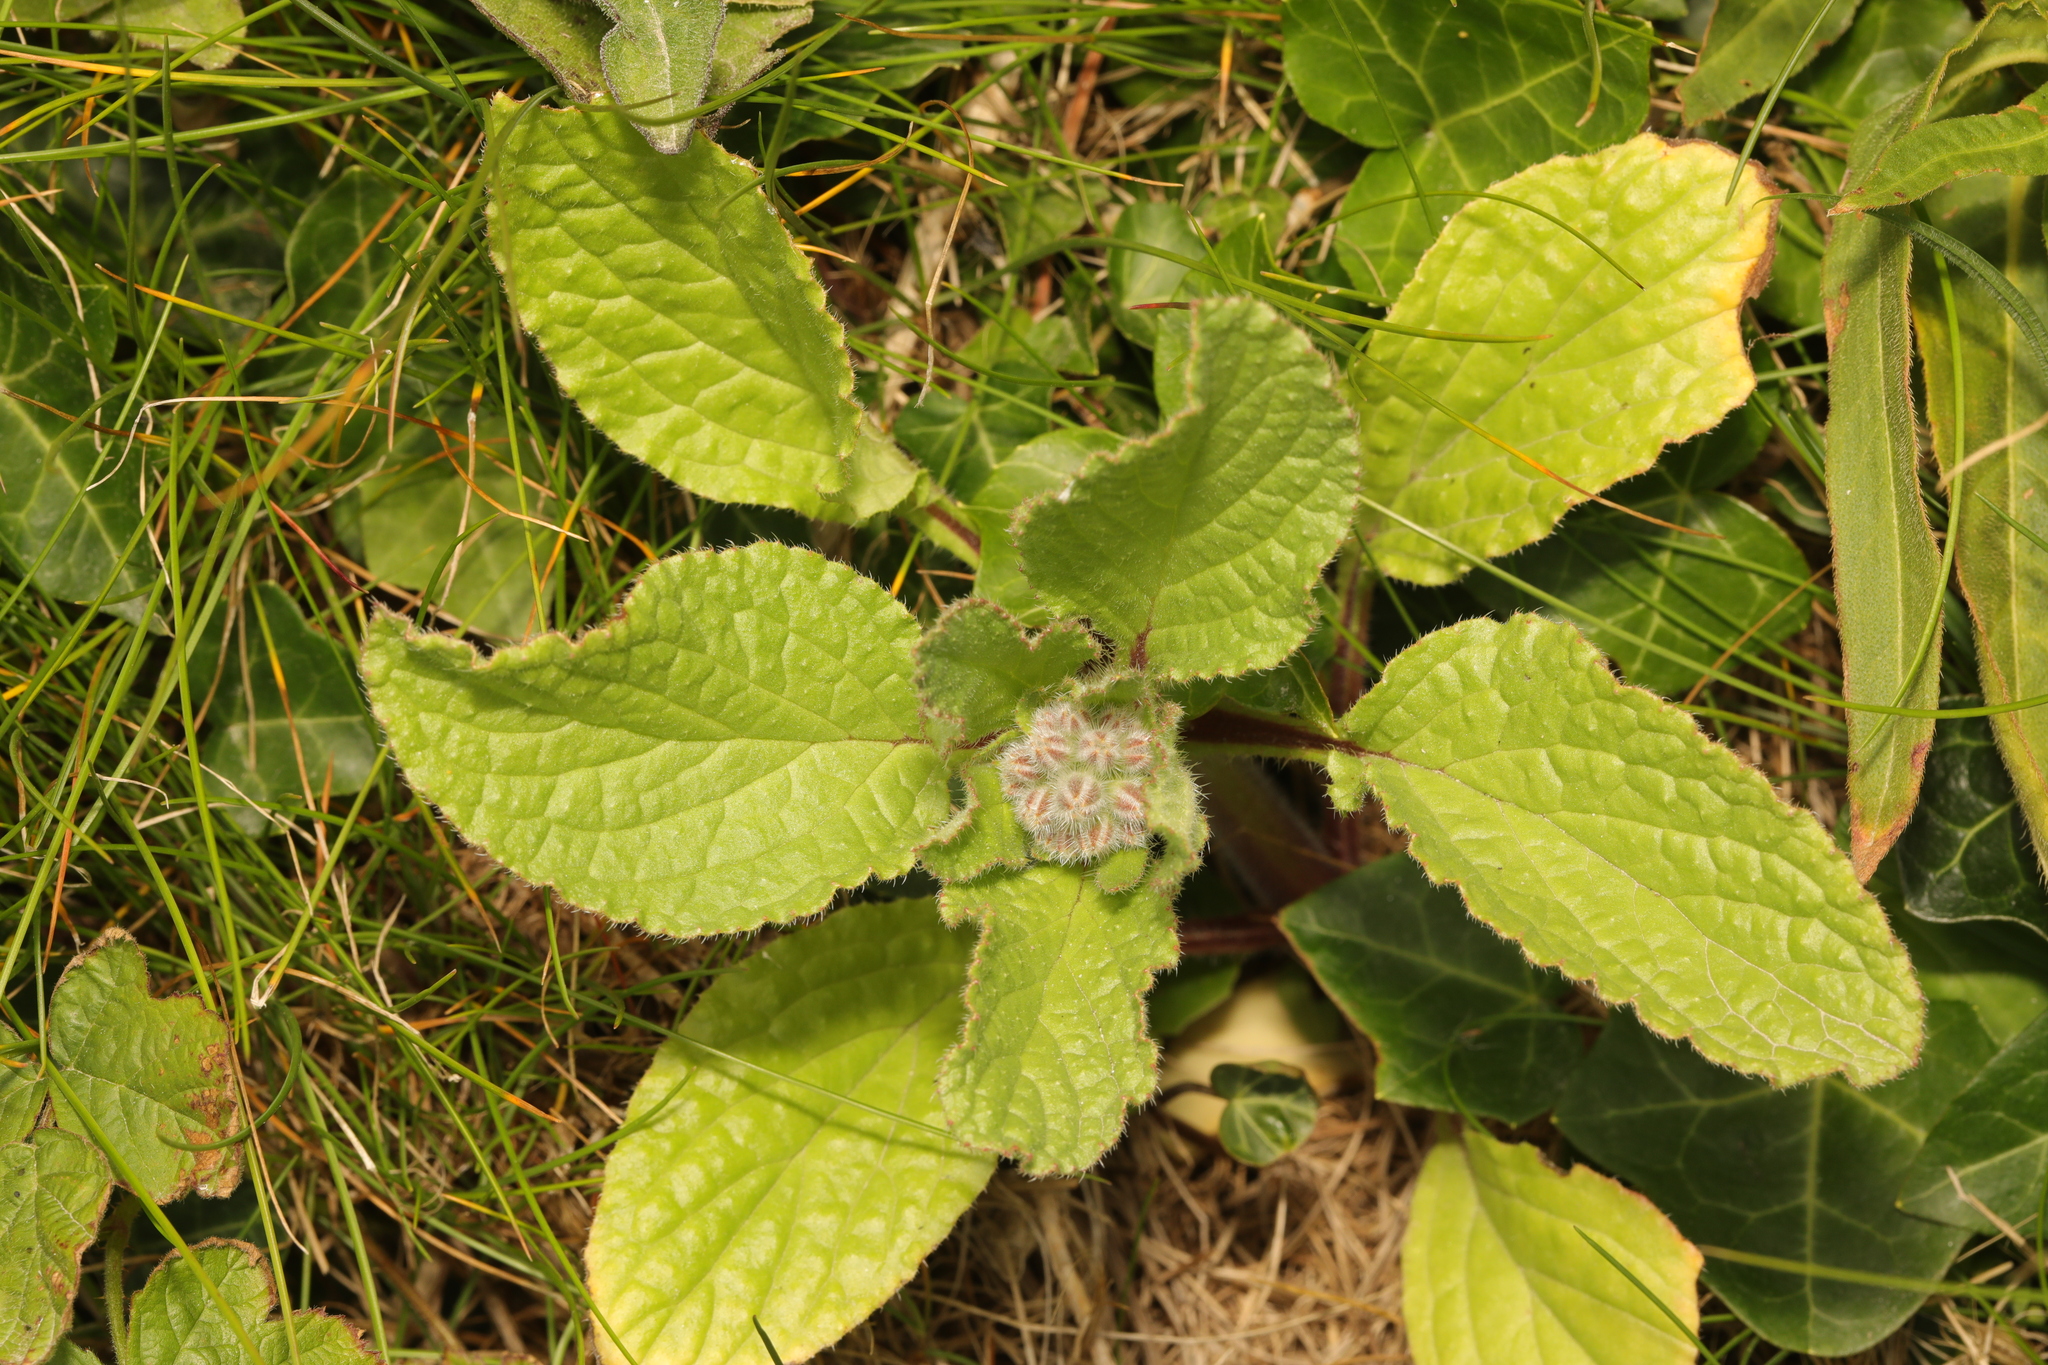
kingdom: Plantae
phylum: Tracheophyta
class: Magnoliopsida
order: Boraginales
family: Boraginaceae
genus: Borago
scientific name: Borago officinalis
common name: Borage
